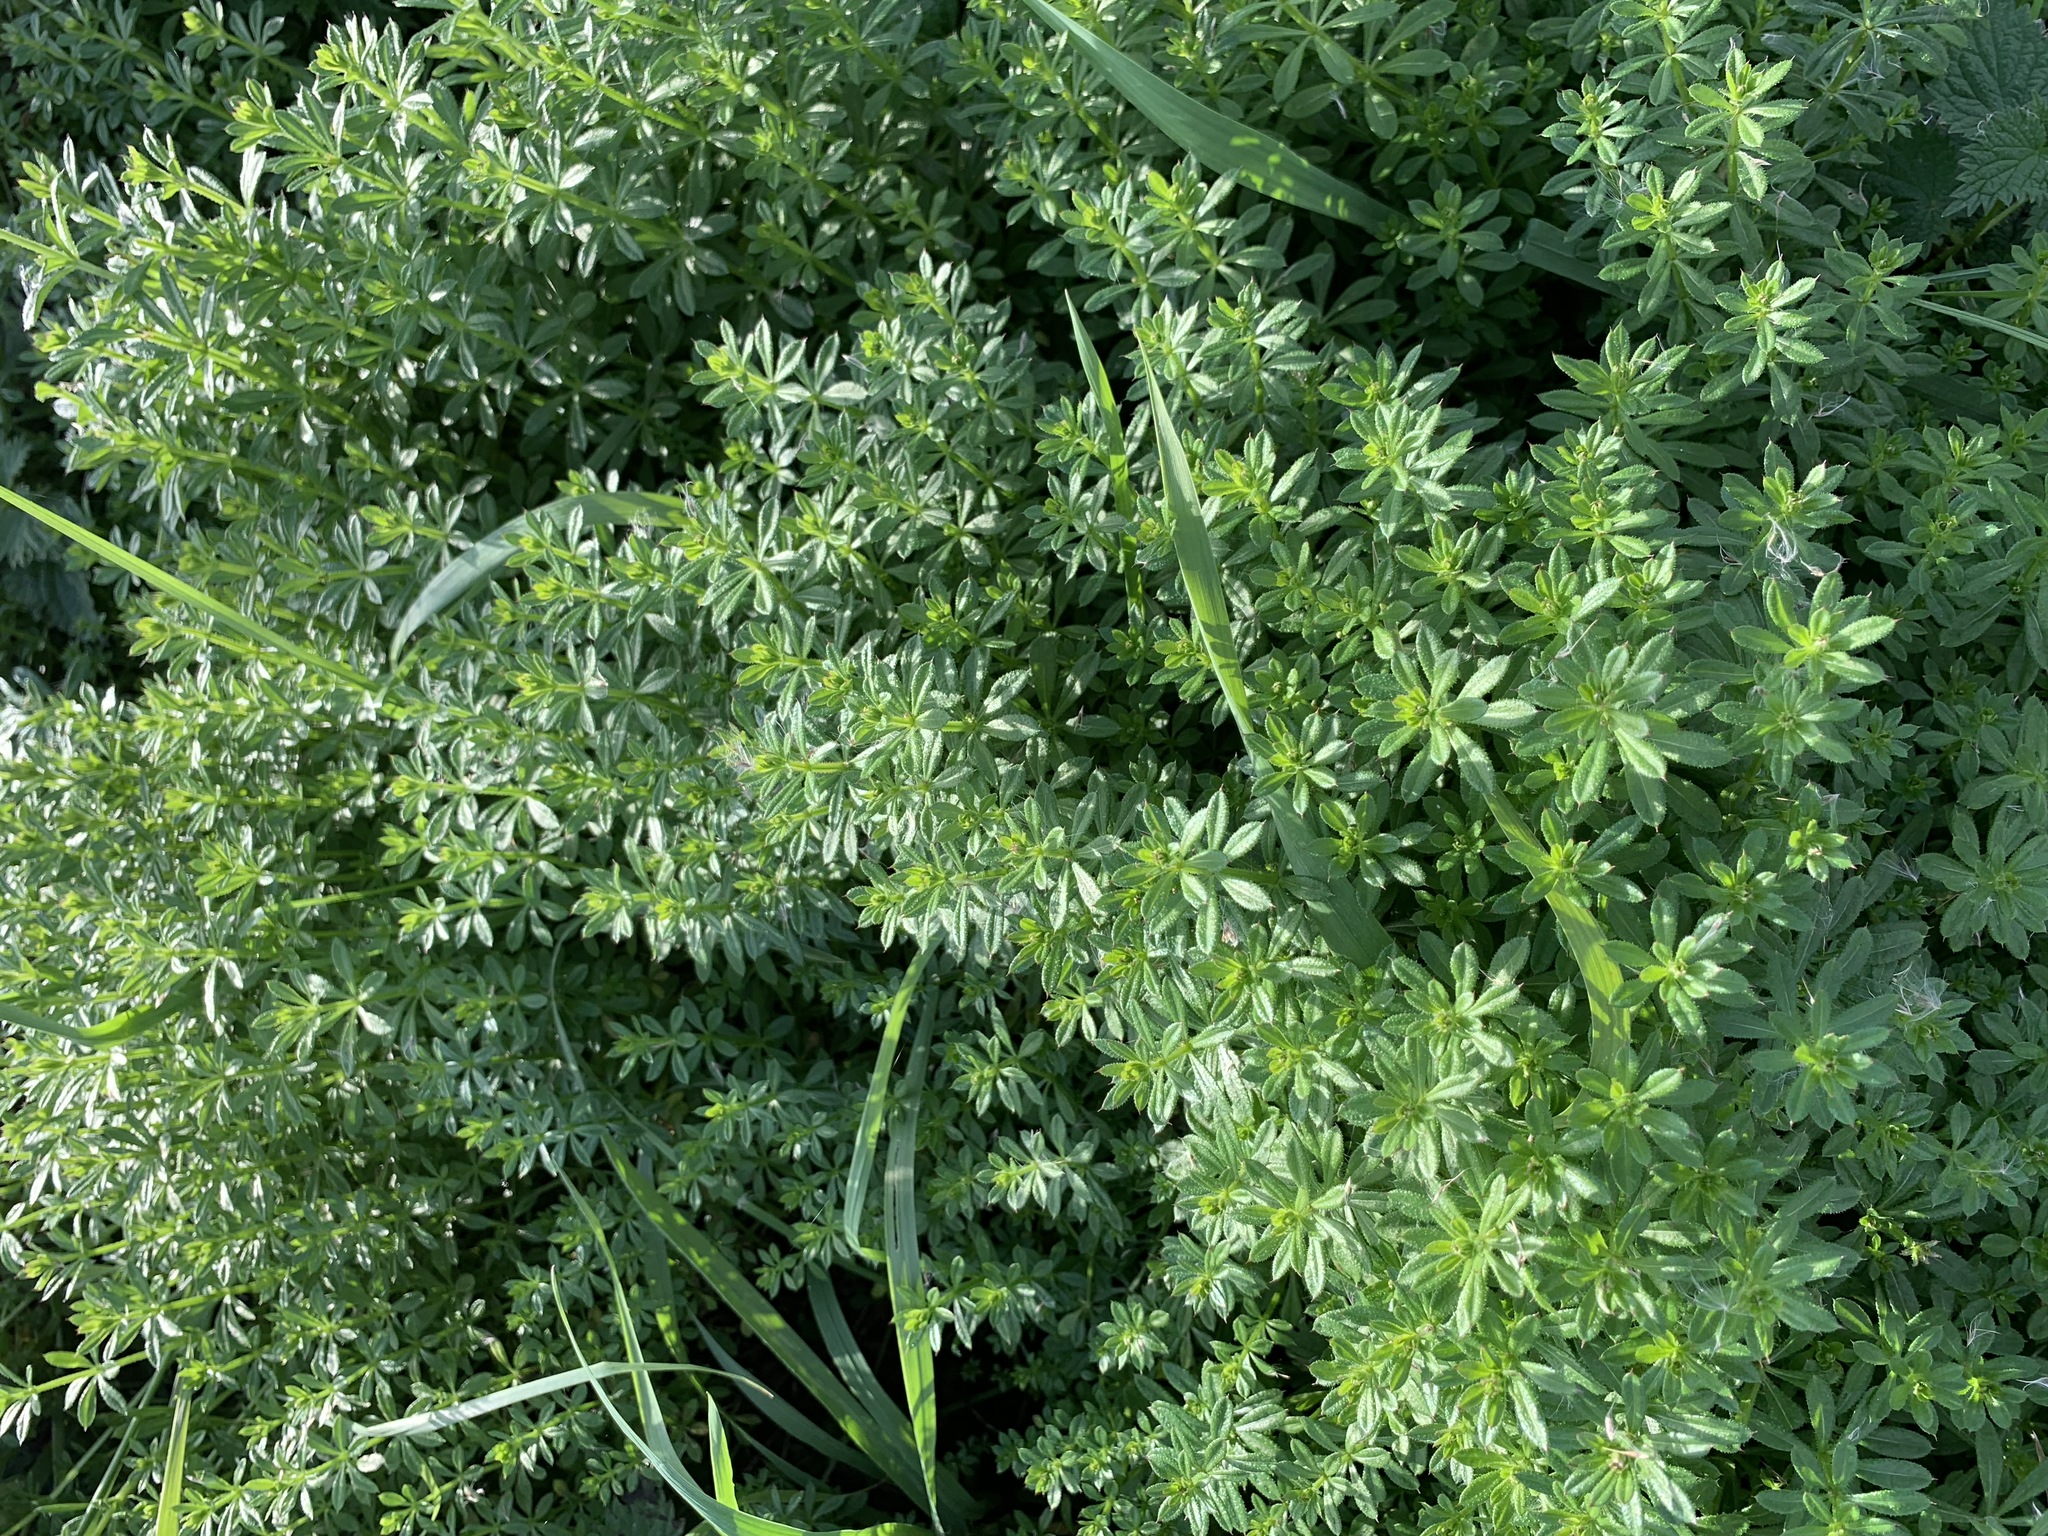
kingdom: Plantae
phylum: Tracheophyta
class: Magnoliopsida
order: Gentianales
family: Rubiaceae
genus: Galium
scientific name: Galium aparine
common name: Cleavers
